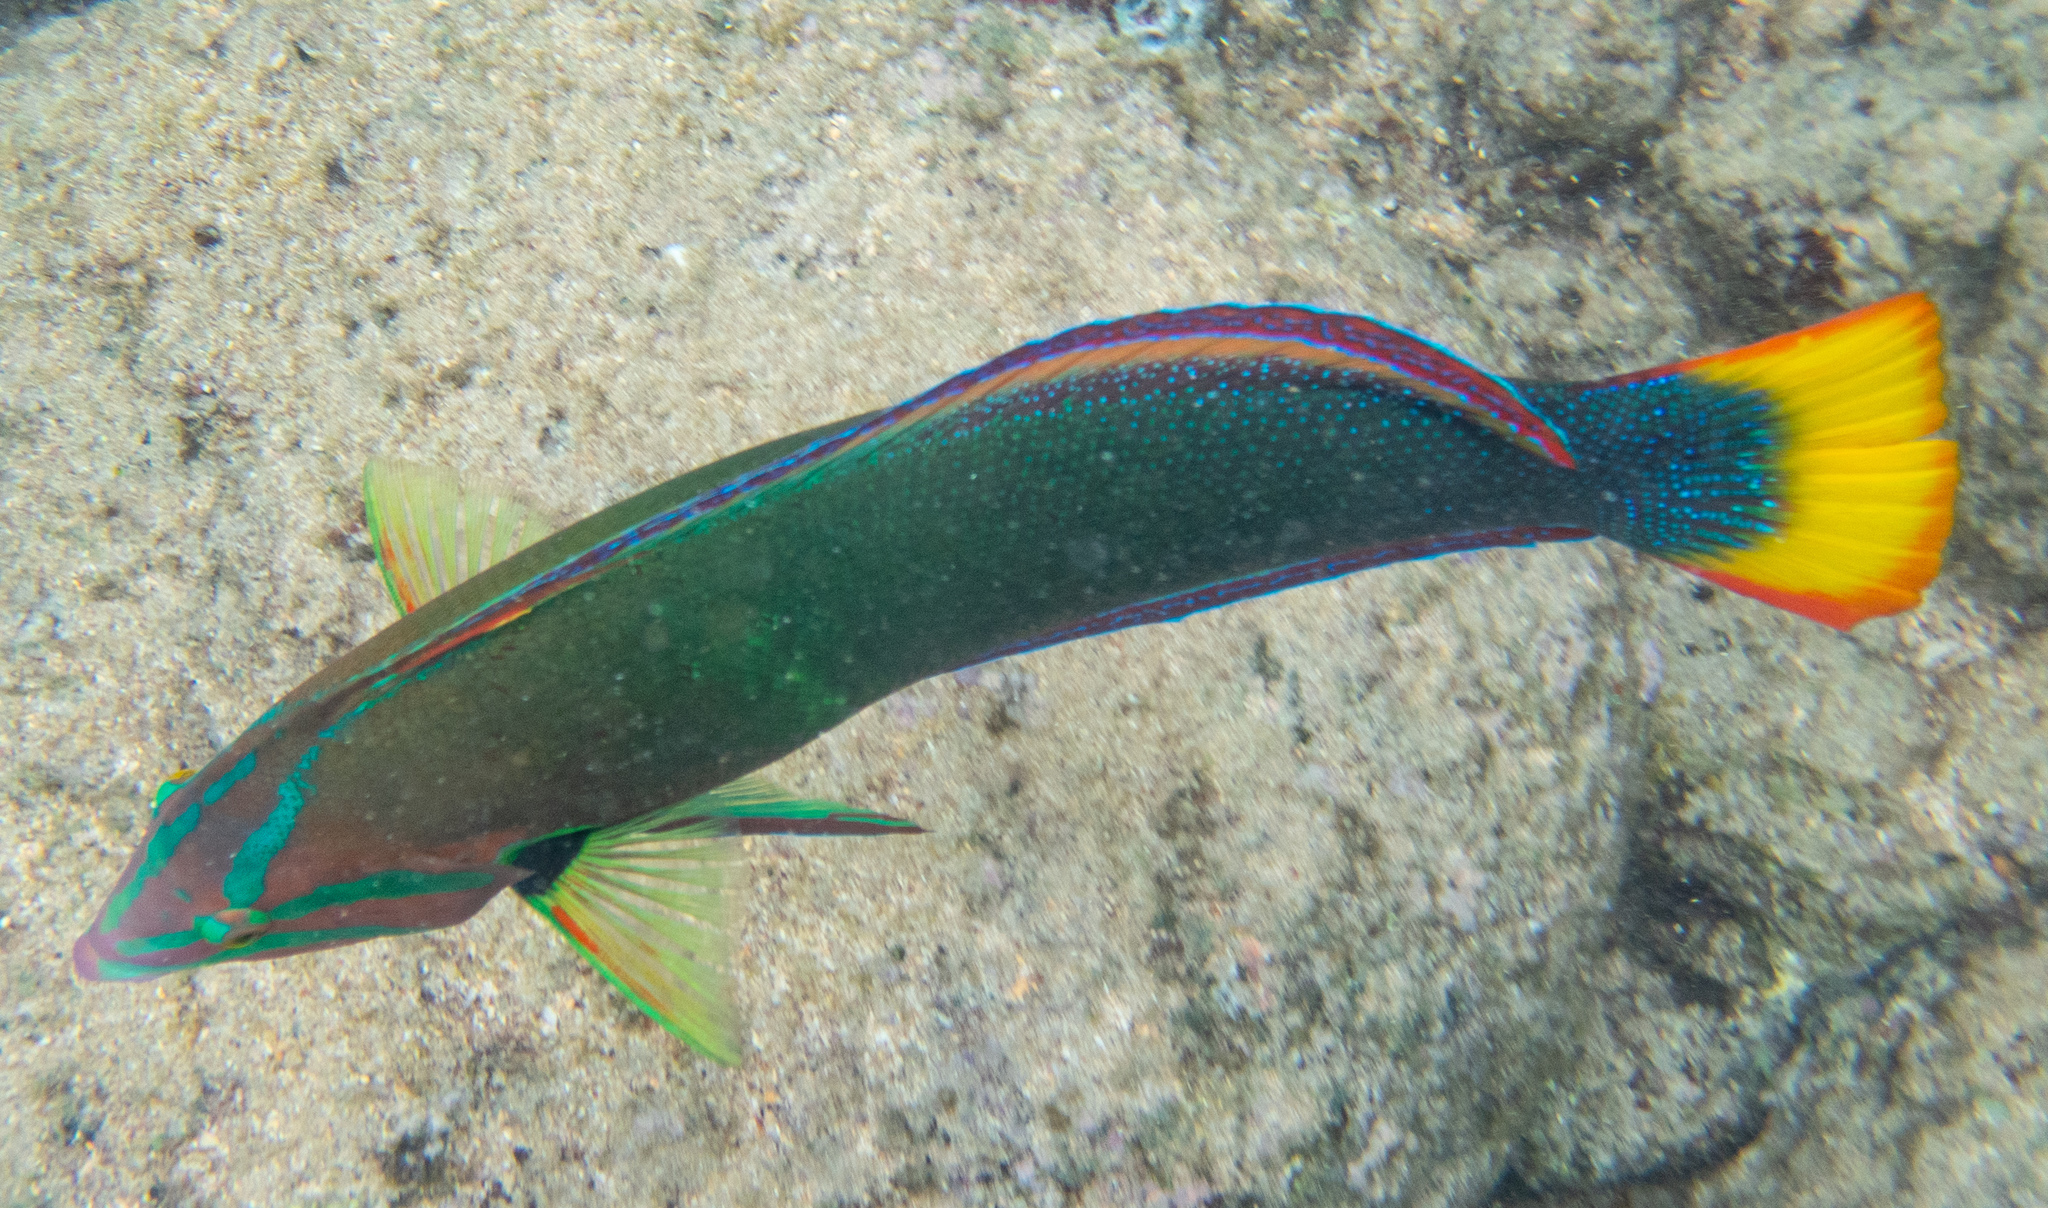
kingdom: Animalia
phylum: Chordata
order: Perciformes
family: Labridae
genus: Coris
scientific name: Coris gaimard
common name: Yellowtail coris
